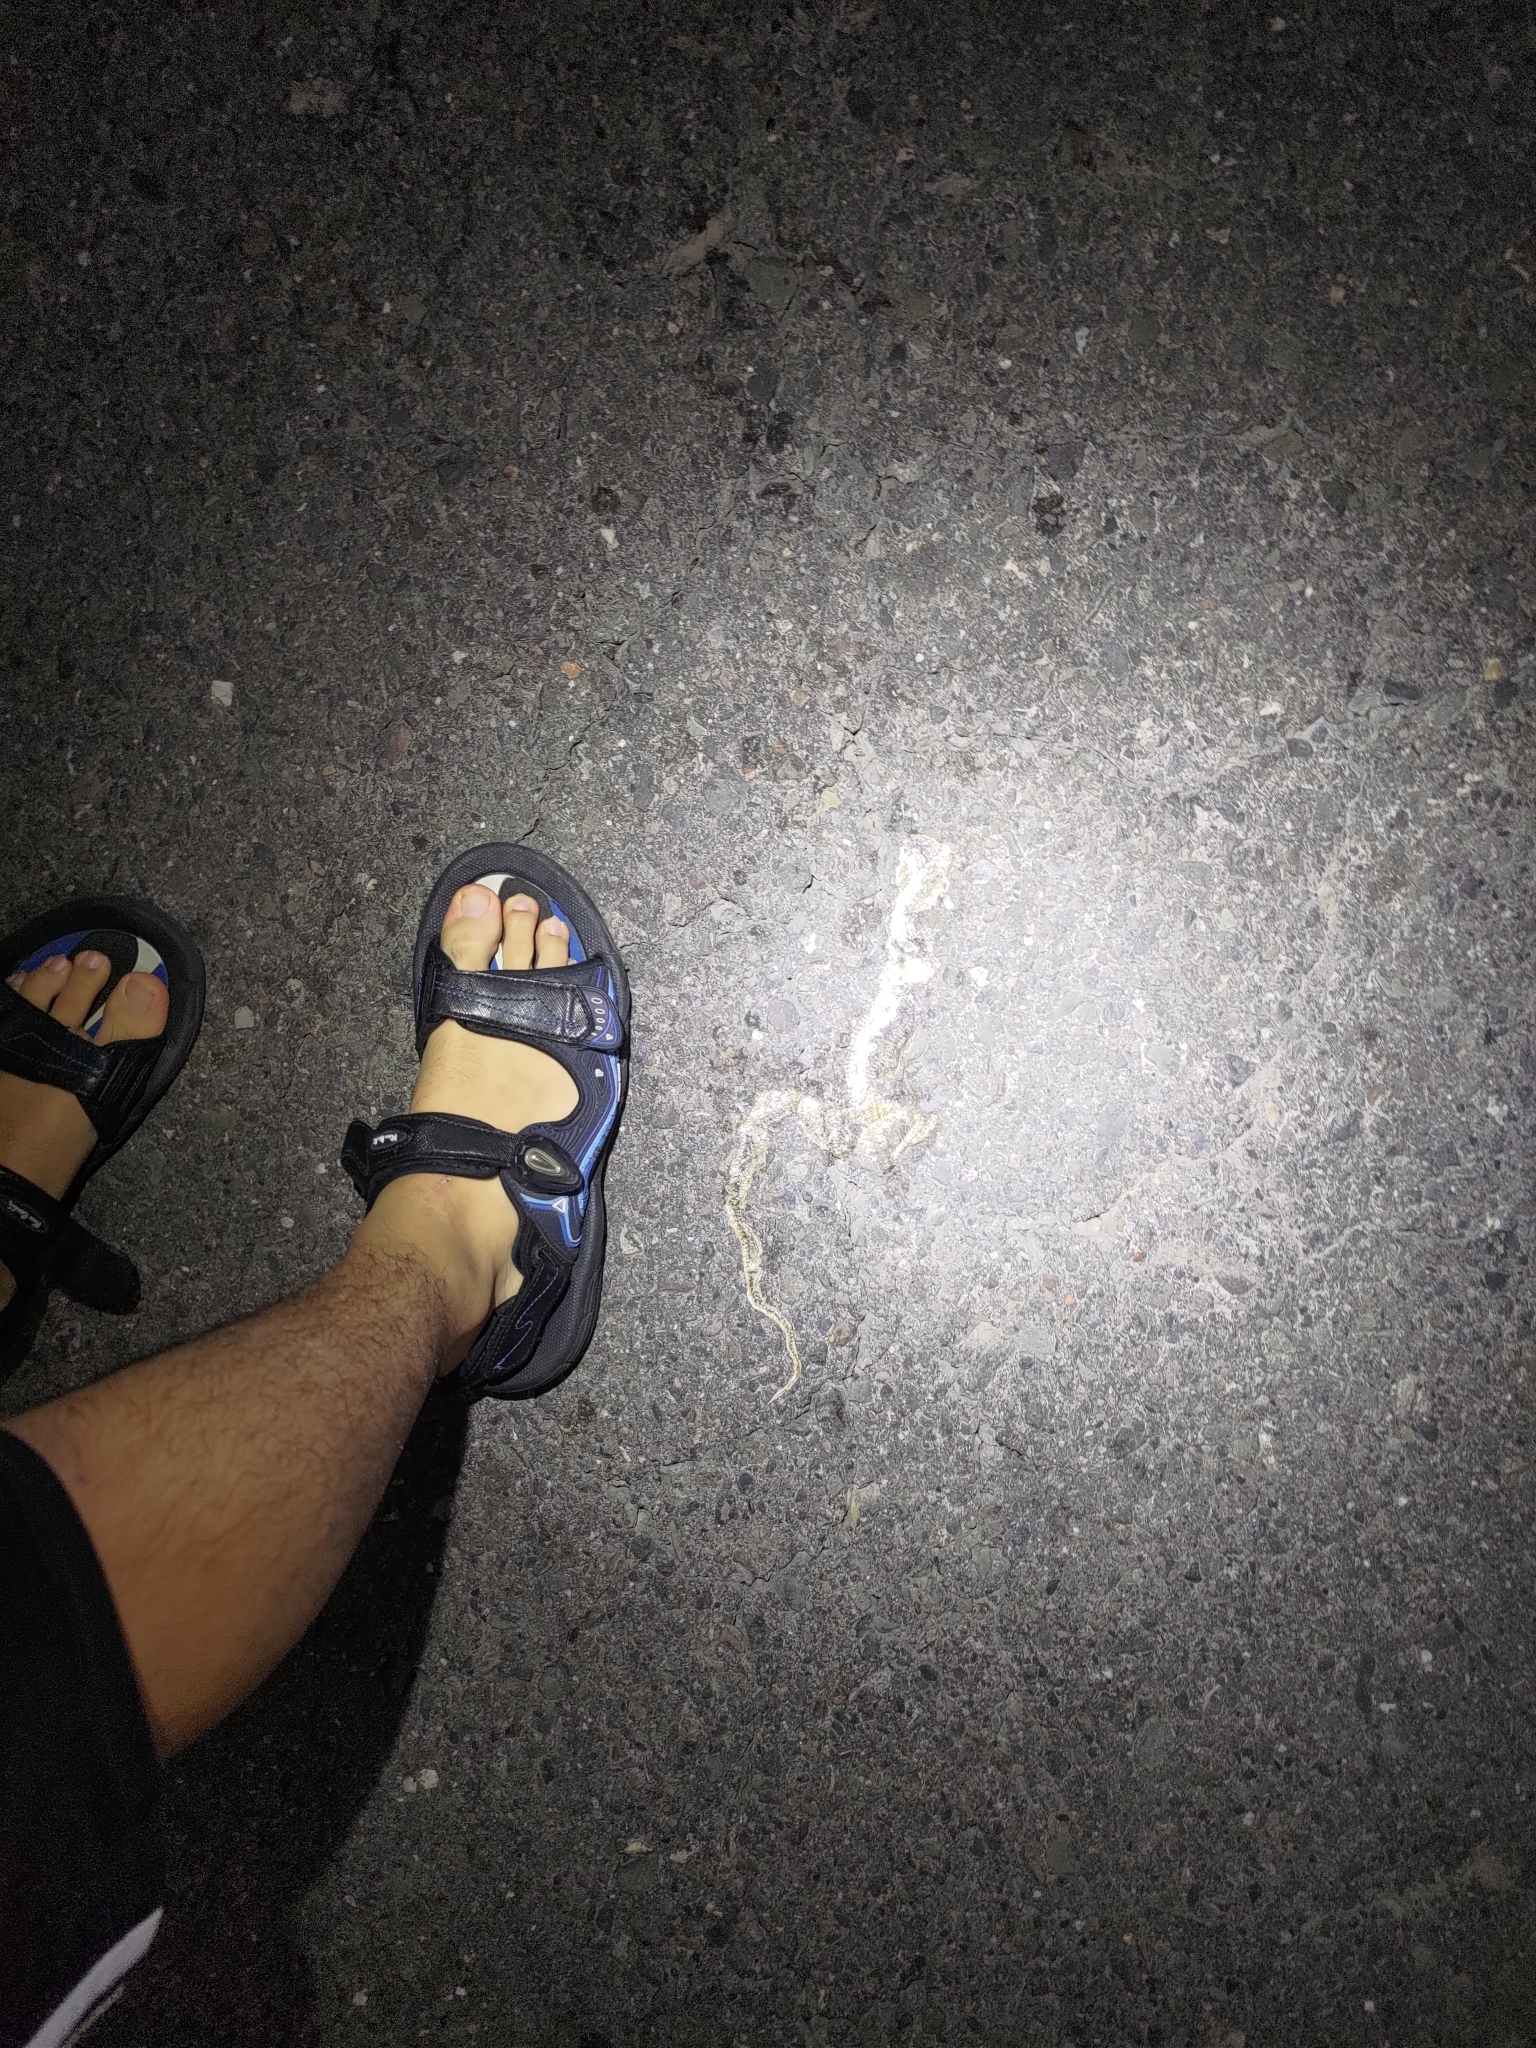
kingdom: Animalia
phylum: Chordata
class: Squamata
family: Colubridae
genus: Fowlea
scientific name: Fowlea flavipunctatus
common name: Yellow-spotted keelback
